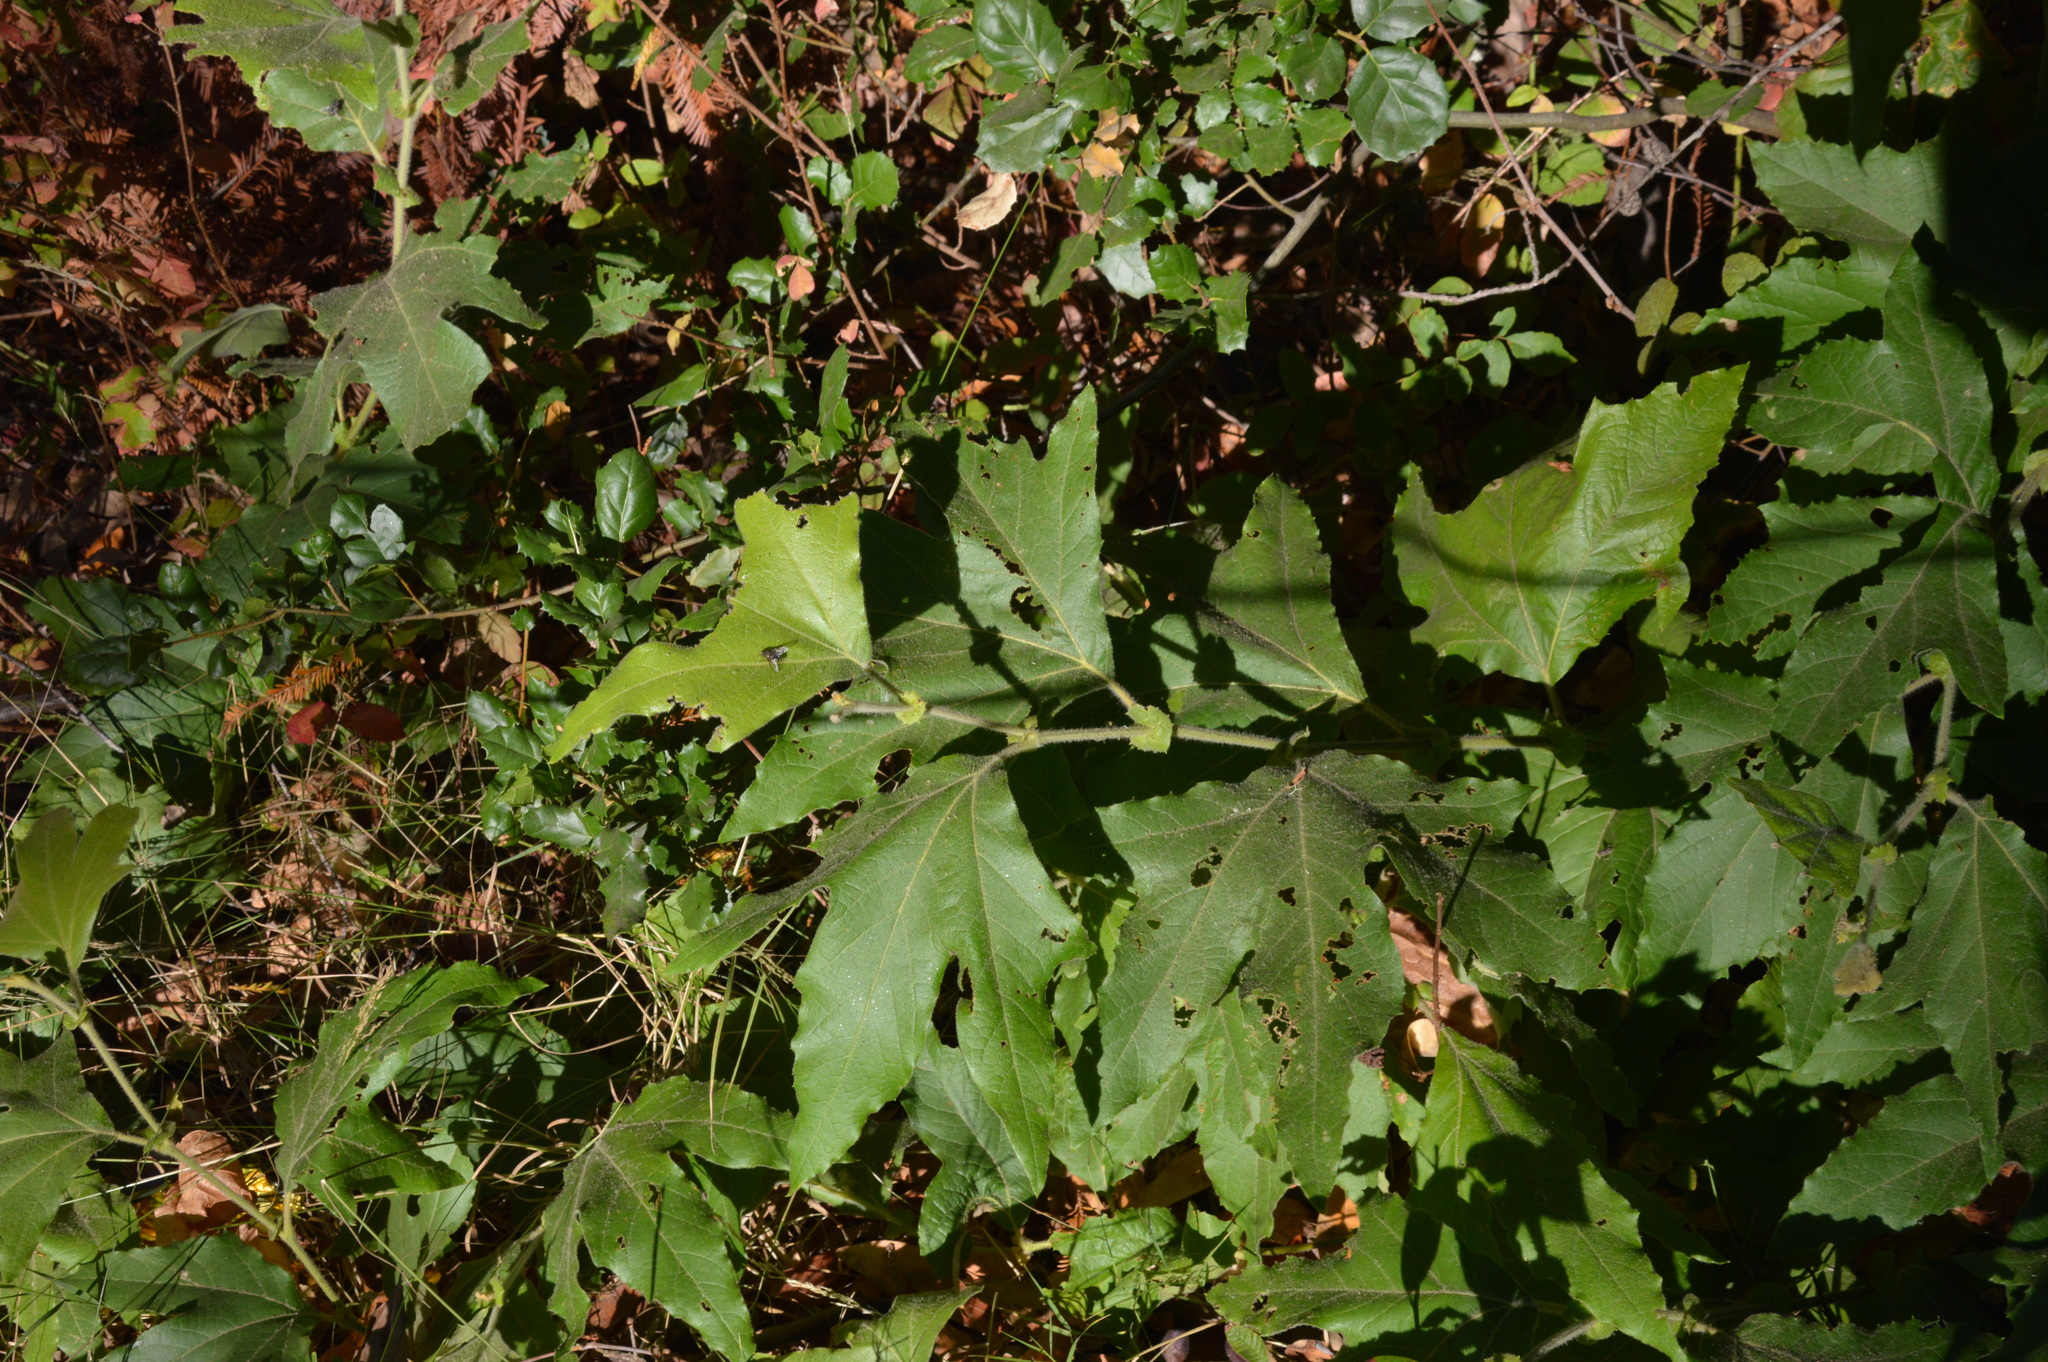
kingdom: Plantae
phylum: Tracheophyta
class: Magnoliopsida
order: Proteales
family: Platanaceae
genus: Platanus
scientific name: Platanus racemosa
